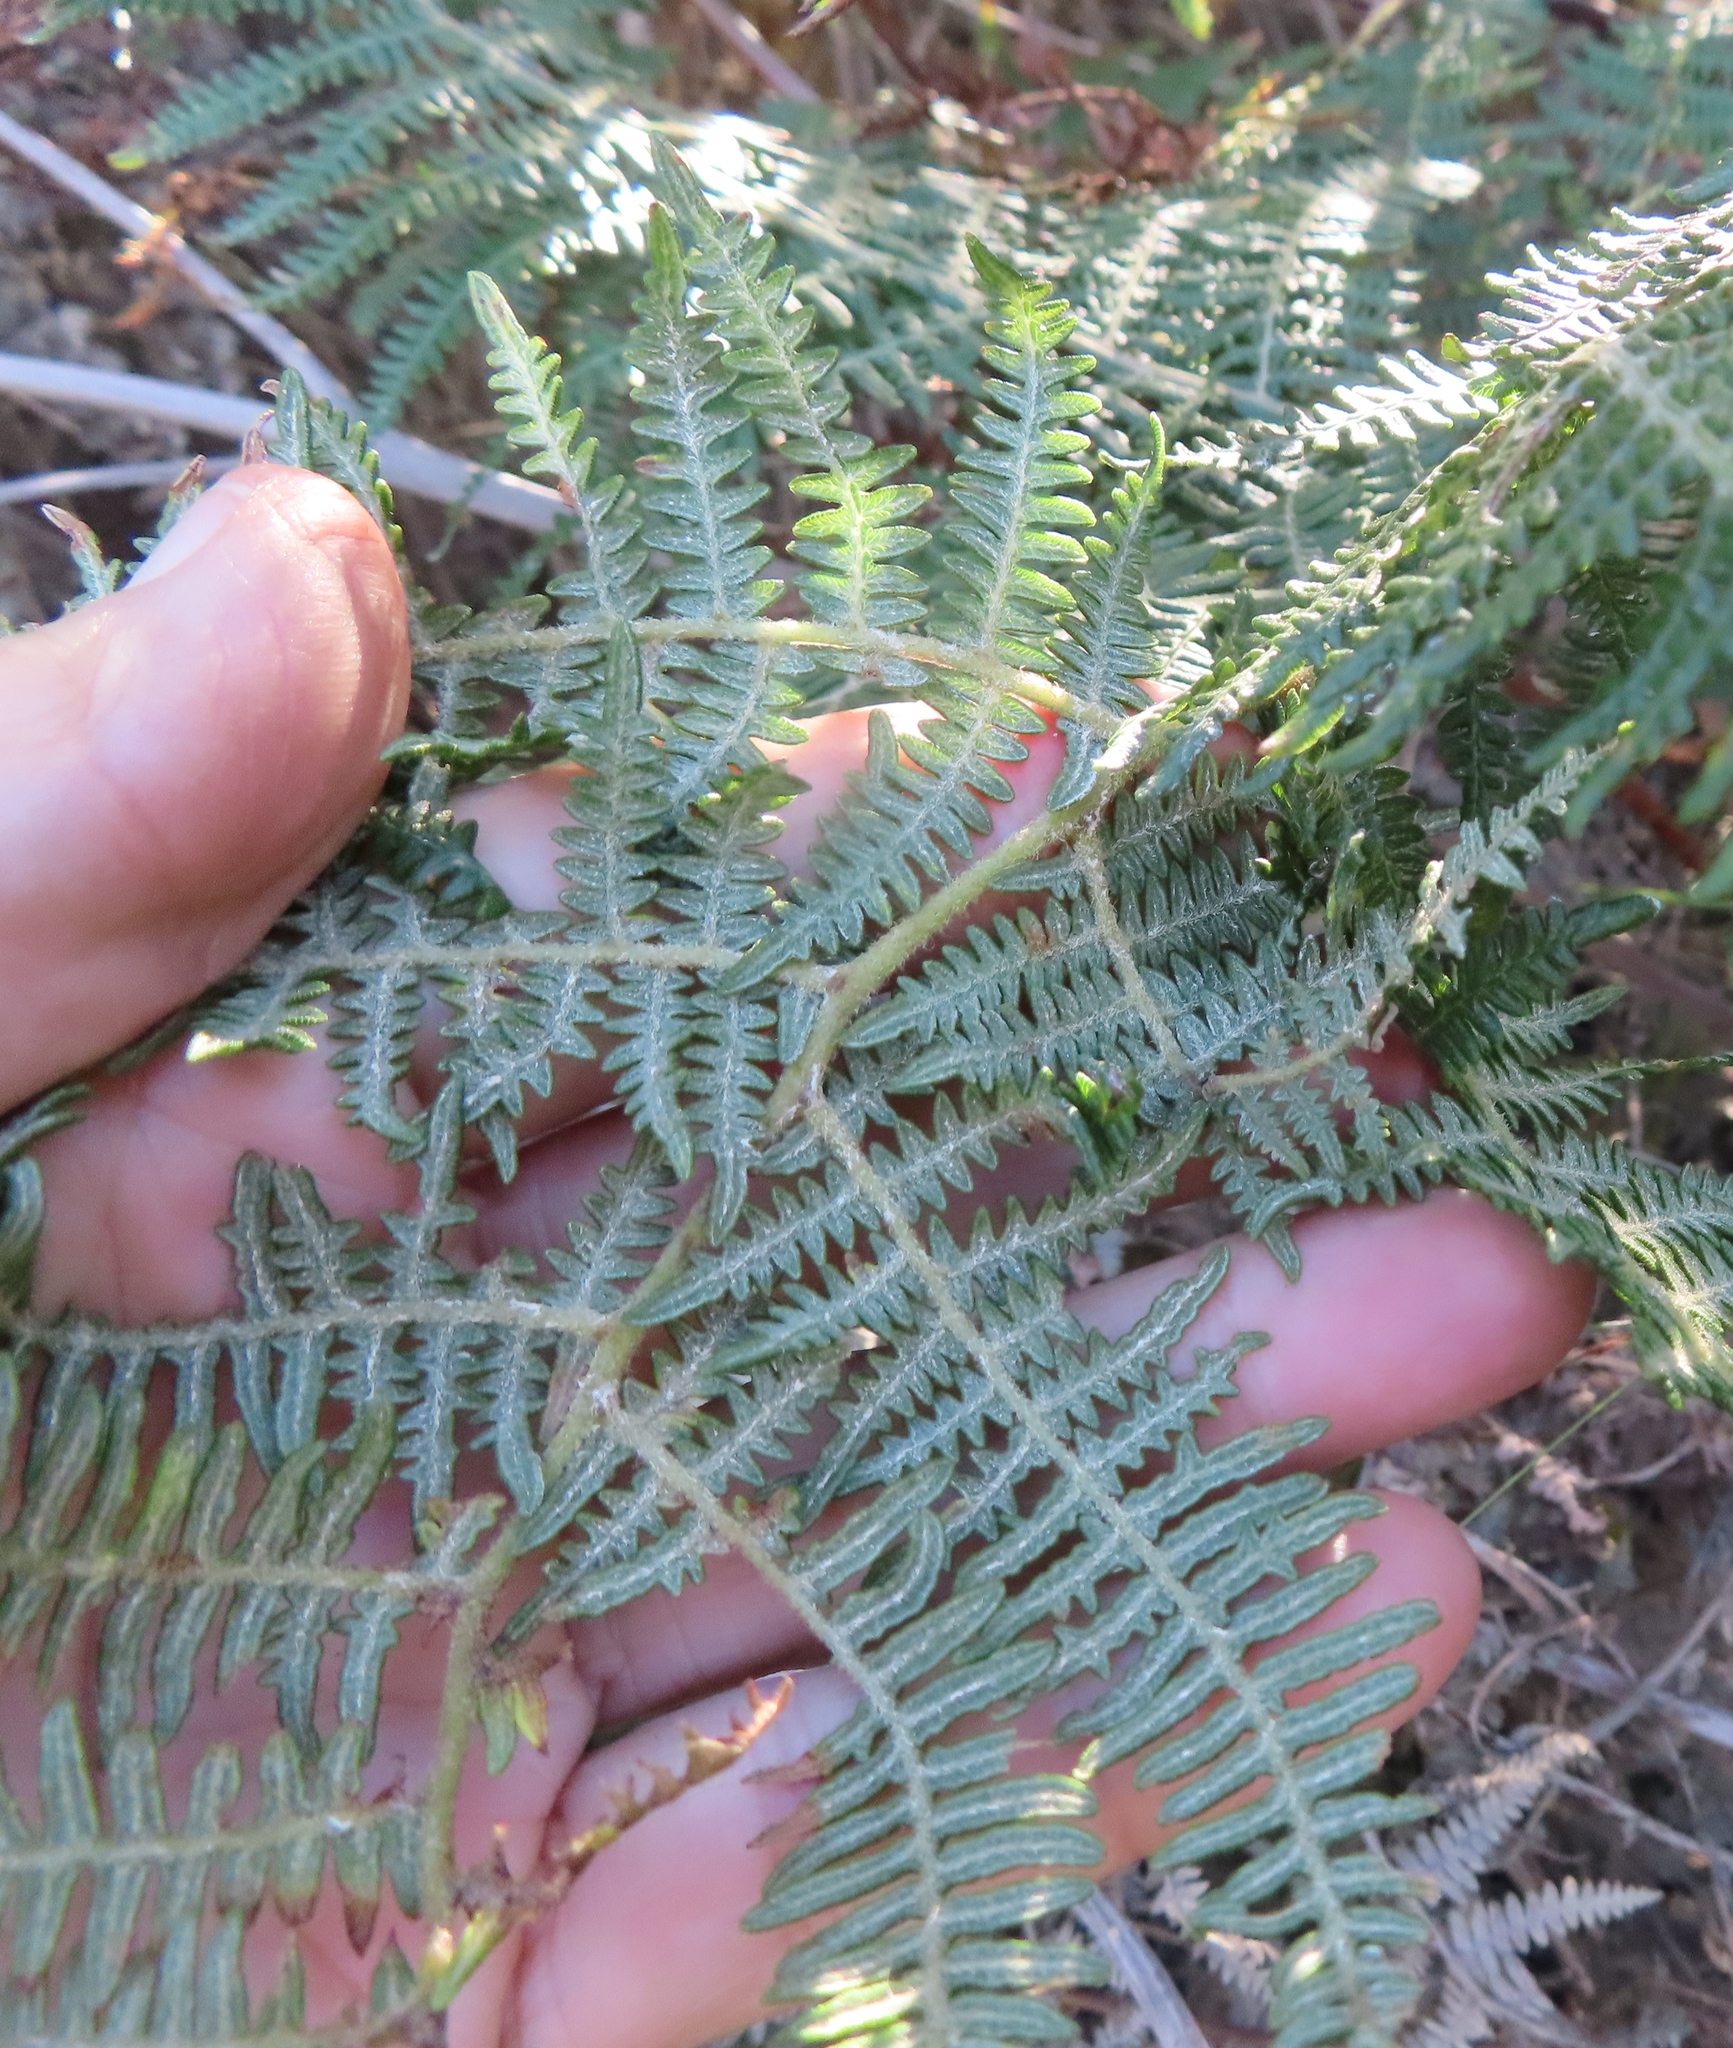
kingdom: Plantae
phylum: Tracheophyta
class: Polypodiopsida
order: Polypodiales
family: Dennstaedtiaceae
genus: Pteridium
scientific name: Pteridium aquilinum
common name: Bracken
